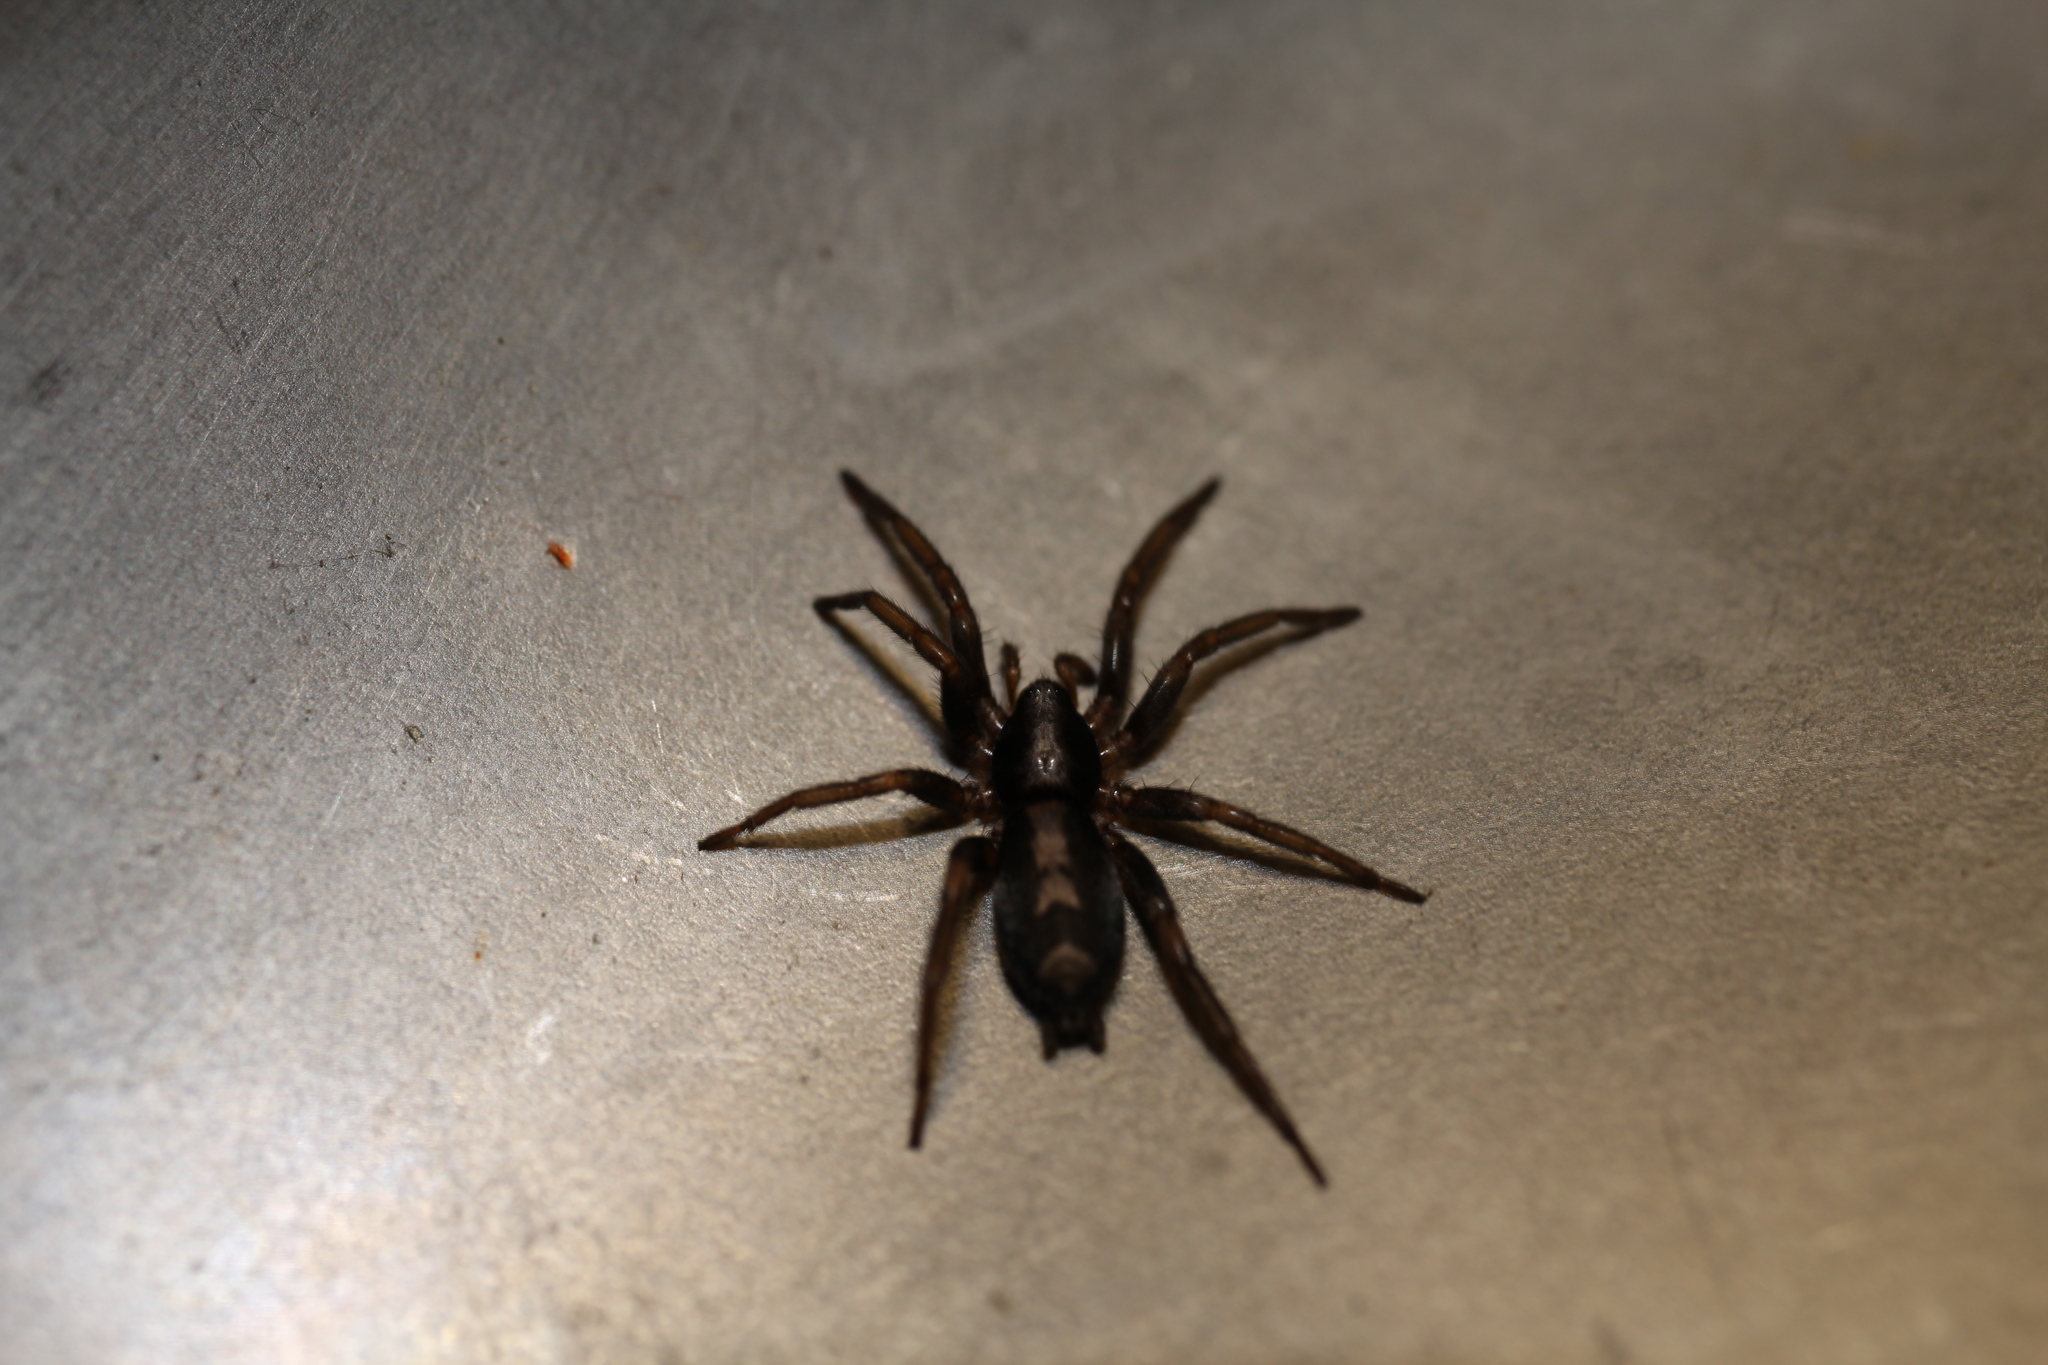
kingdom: Animalia
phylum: Arthropoda
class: Arachnida
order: Araneae
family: Gnaphosidae
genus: Herpyllus
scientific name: Herpyllus ecclesiasticus
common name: Eastern parson spider
